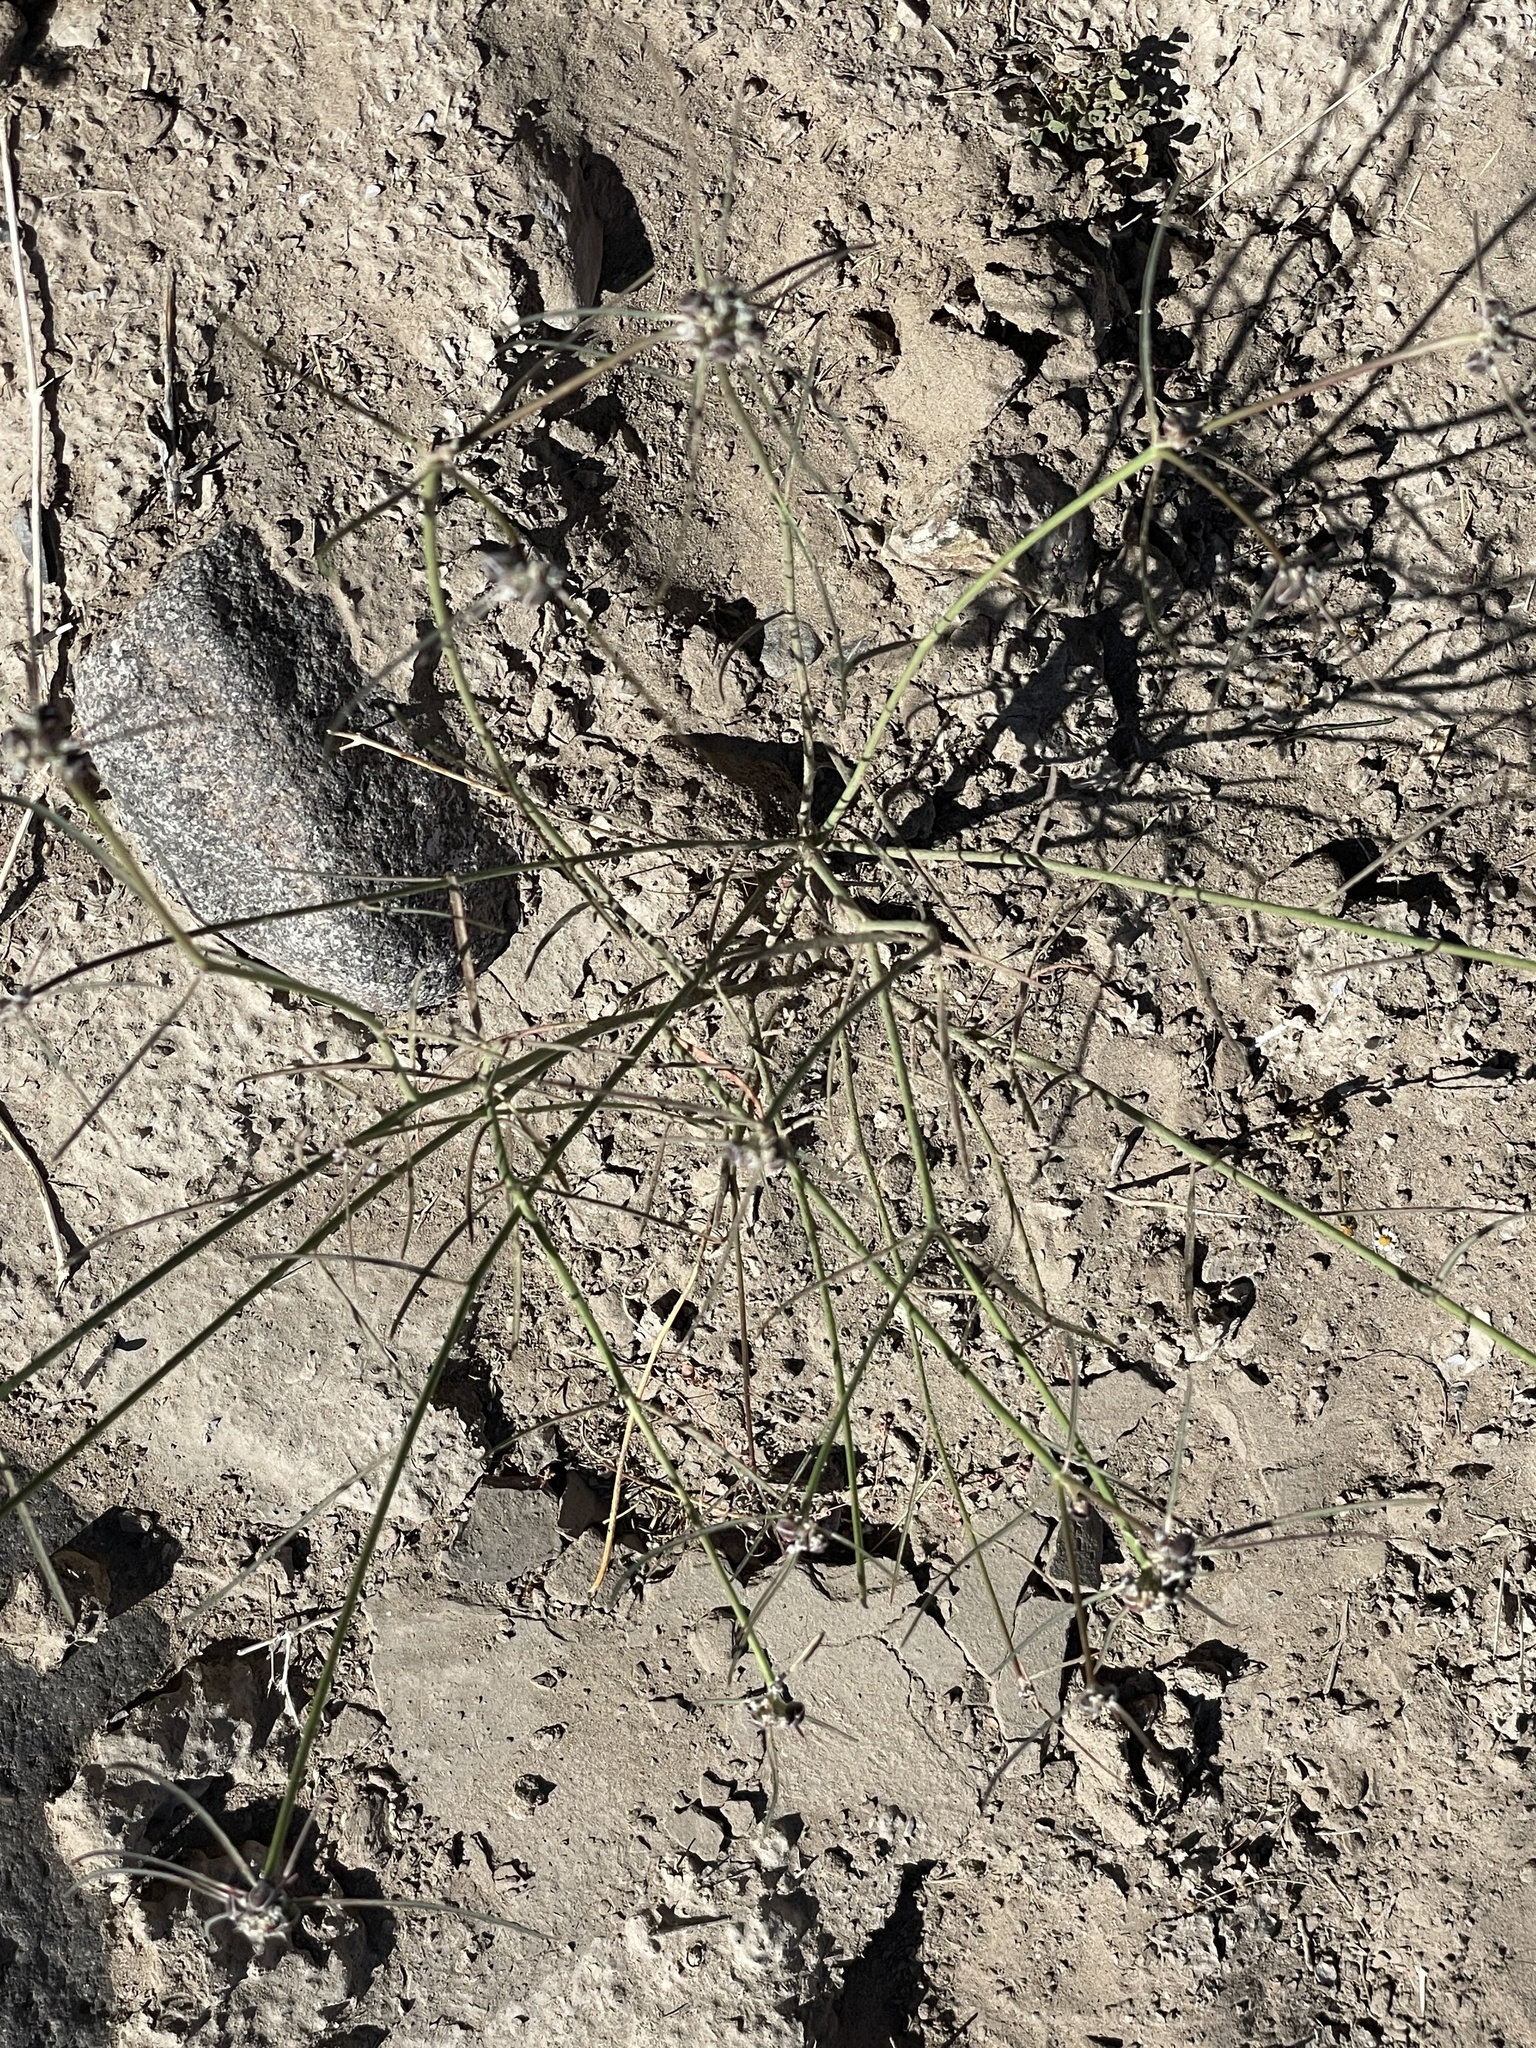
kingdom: Plantae
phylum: Tracheophyta
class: Magnoliopsida
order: Malpighiales
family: Euphorbiaceae
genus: Euphorbia
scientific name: Euphorbia eriantha
